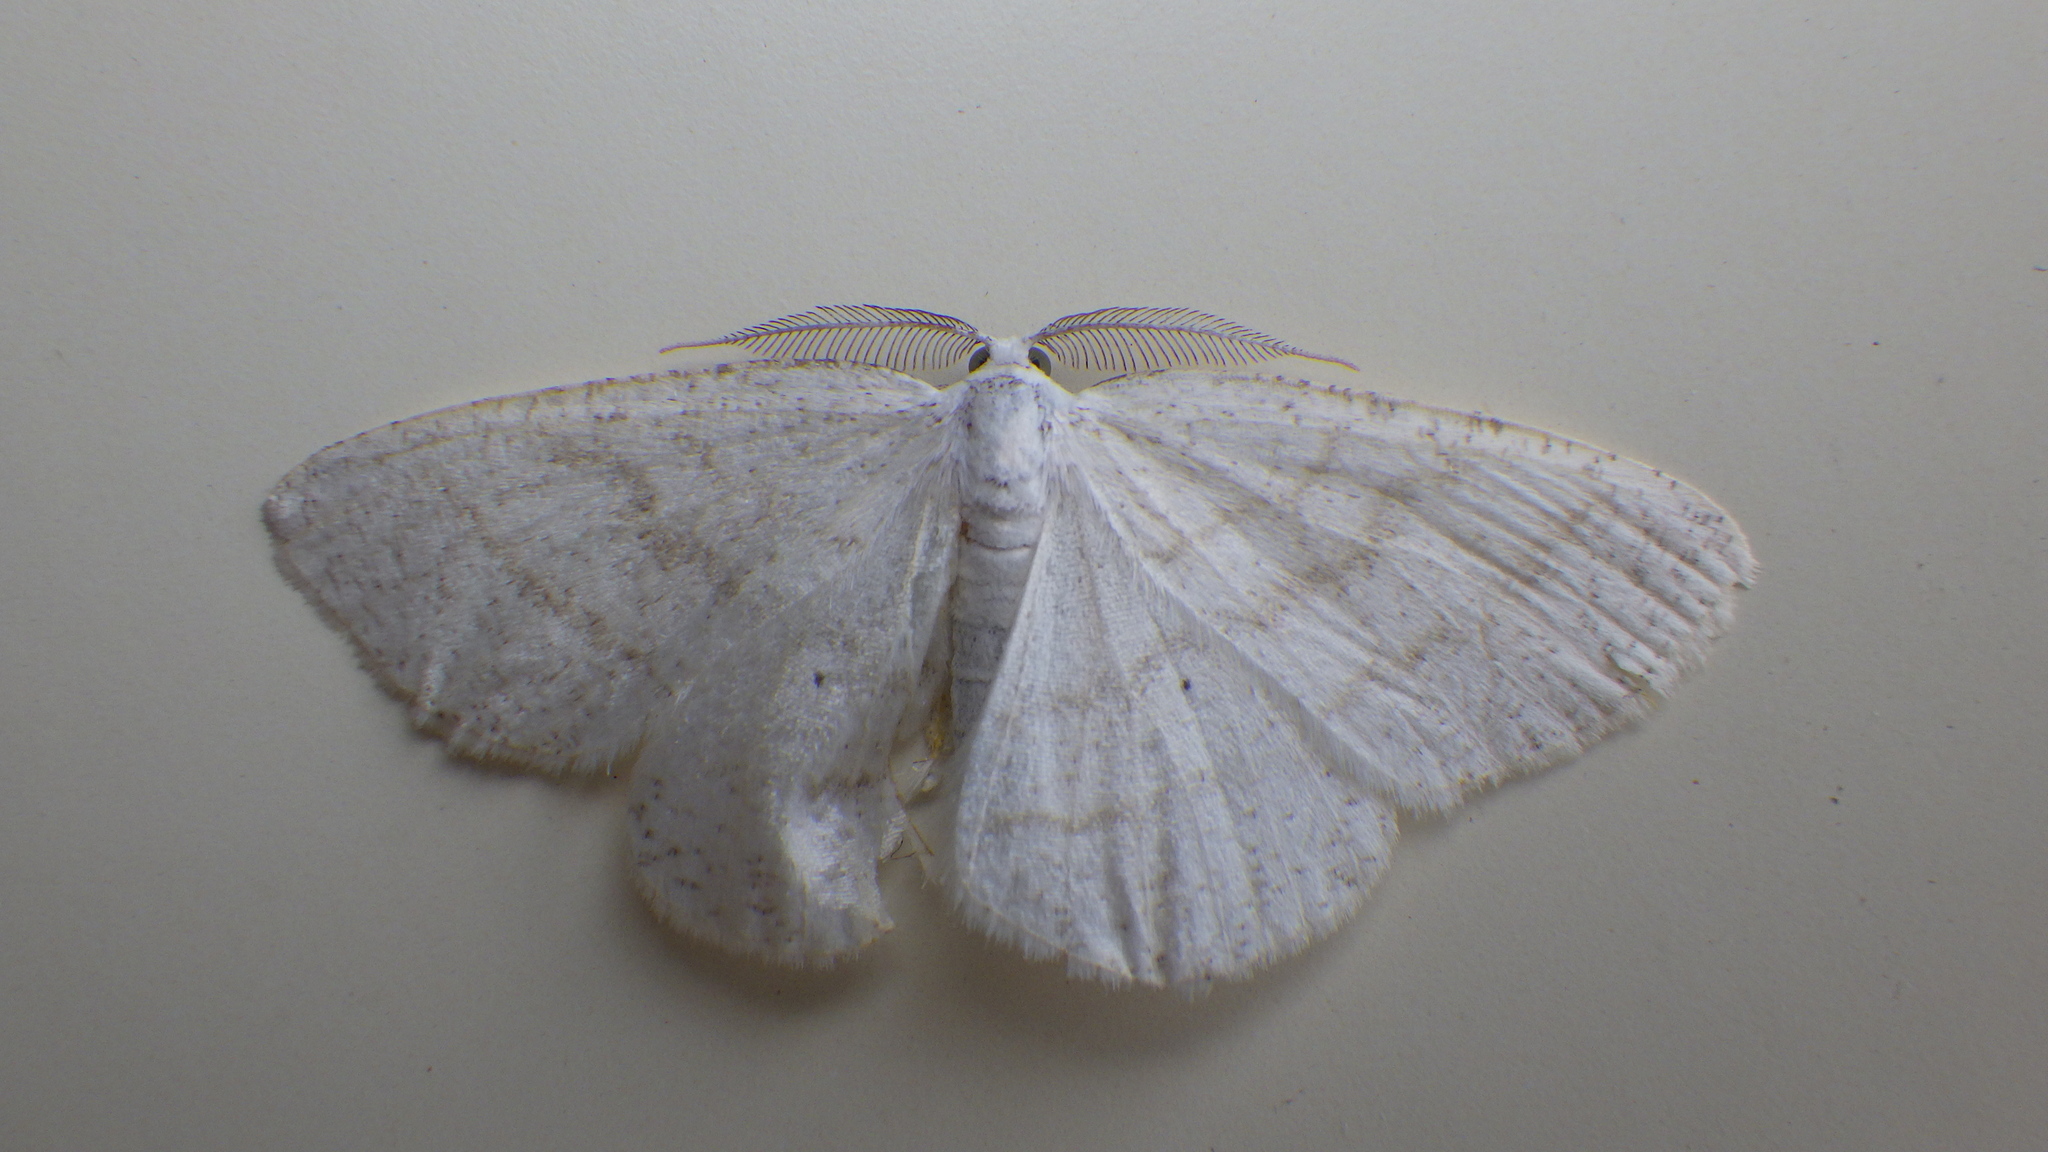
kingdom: Animalia
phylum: Arthropoda
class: Insecta
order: Lepidoptera
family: Geometridae
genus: Cabera
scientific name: Cabera pusaria
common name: Common white wave
